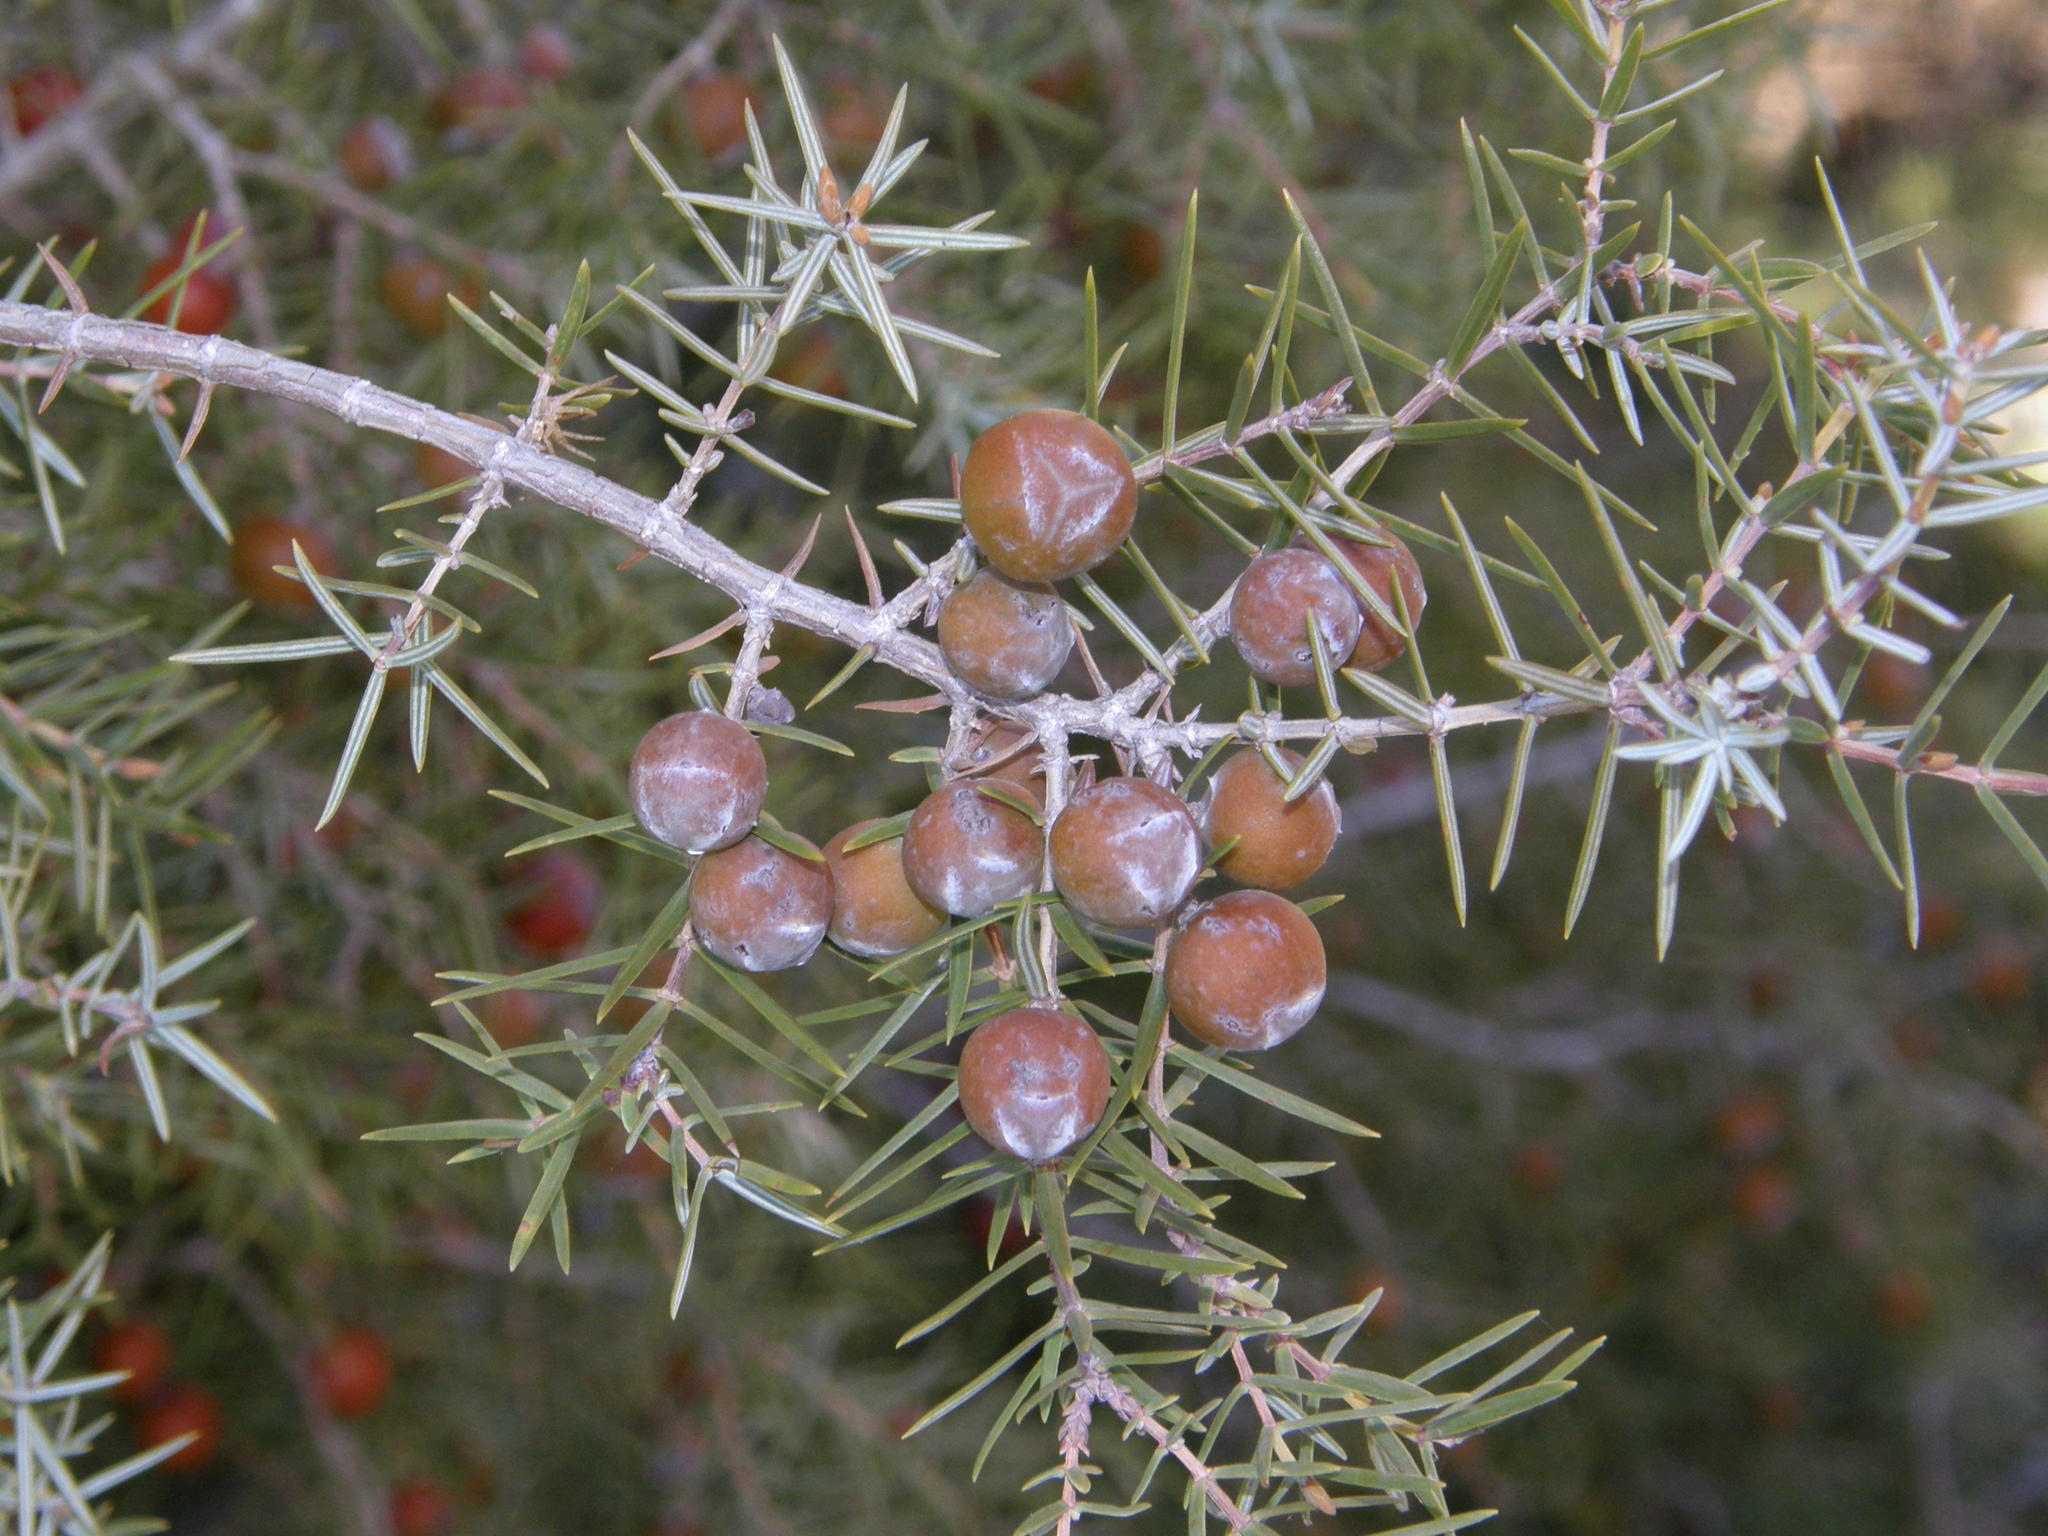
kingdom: Plantae
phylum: Tracheophyta
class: Pinopsida
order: Pinales
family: Cupressaceae
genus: Juniperus
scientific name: Juniperus oxycedrus
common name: Prickly juniper
